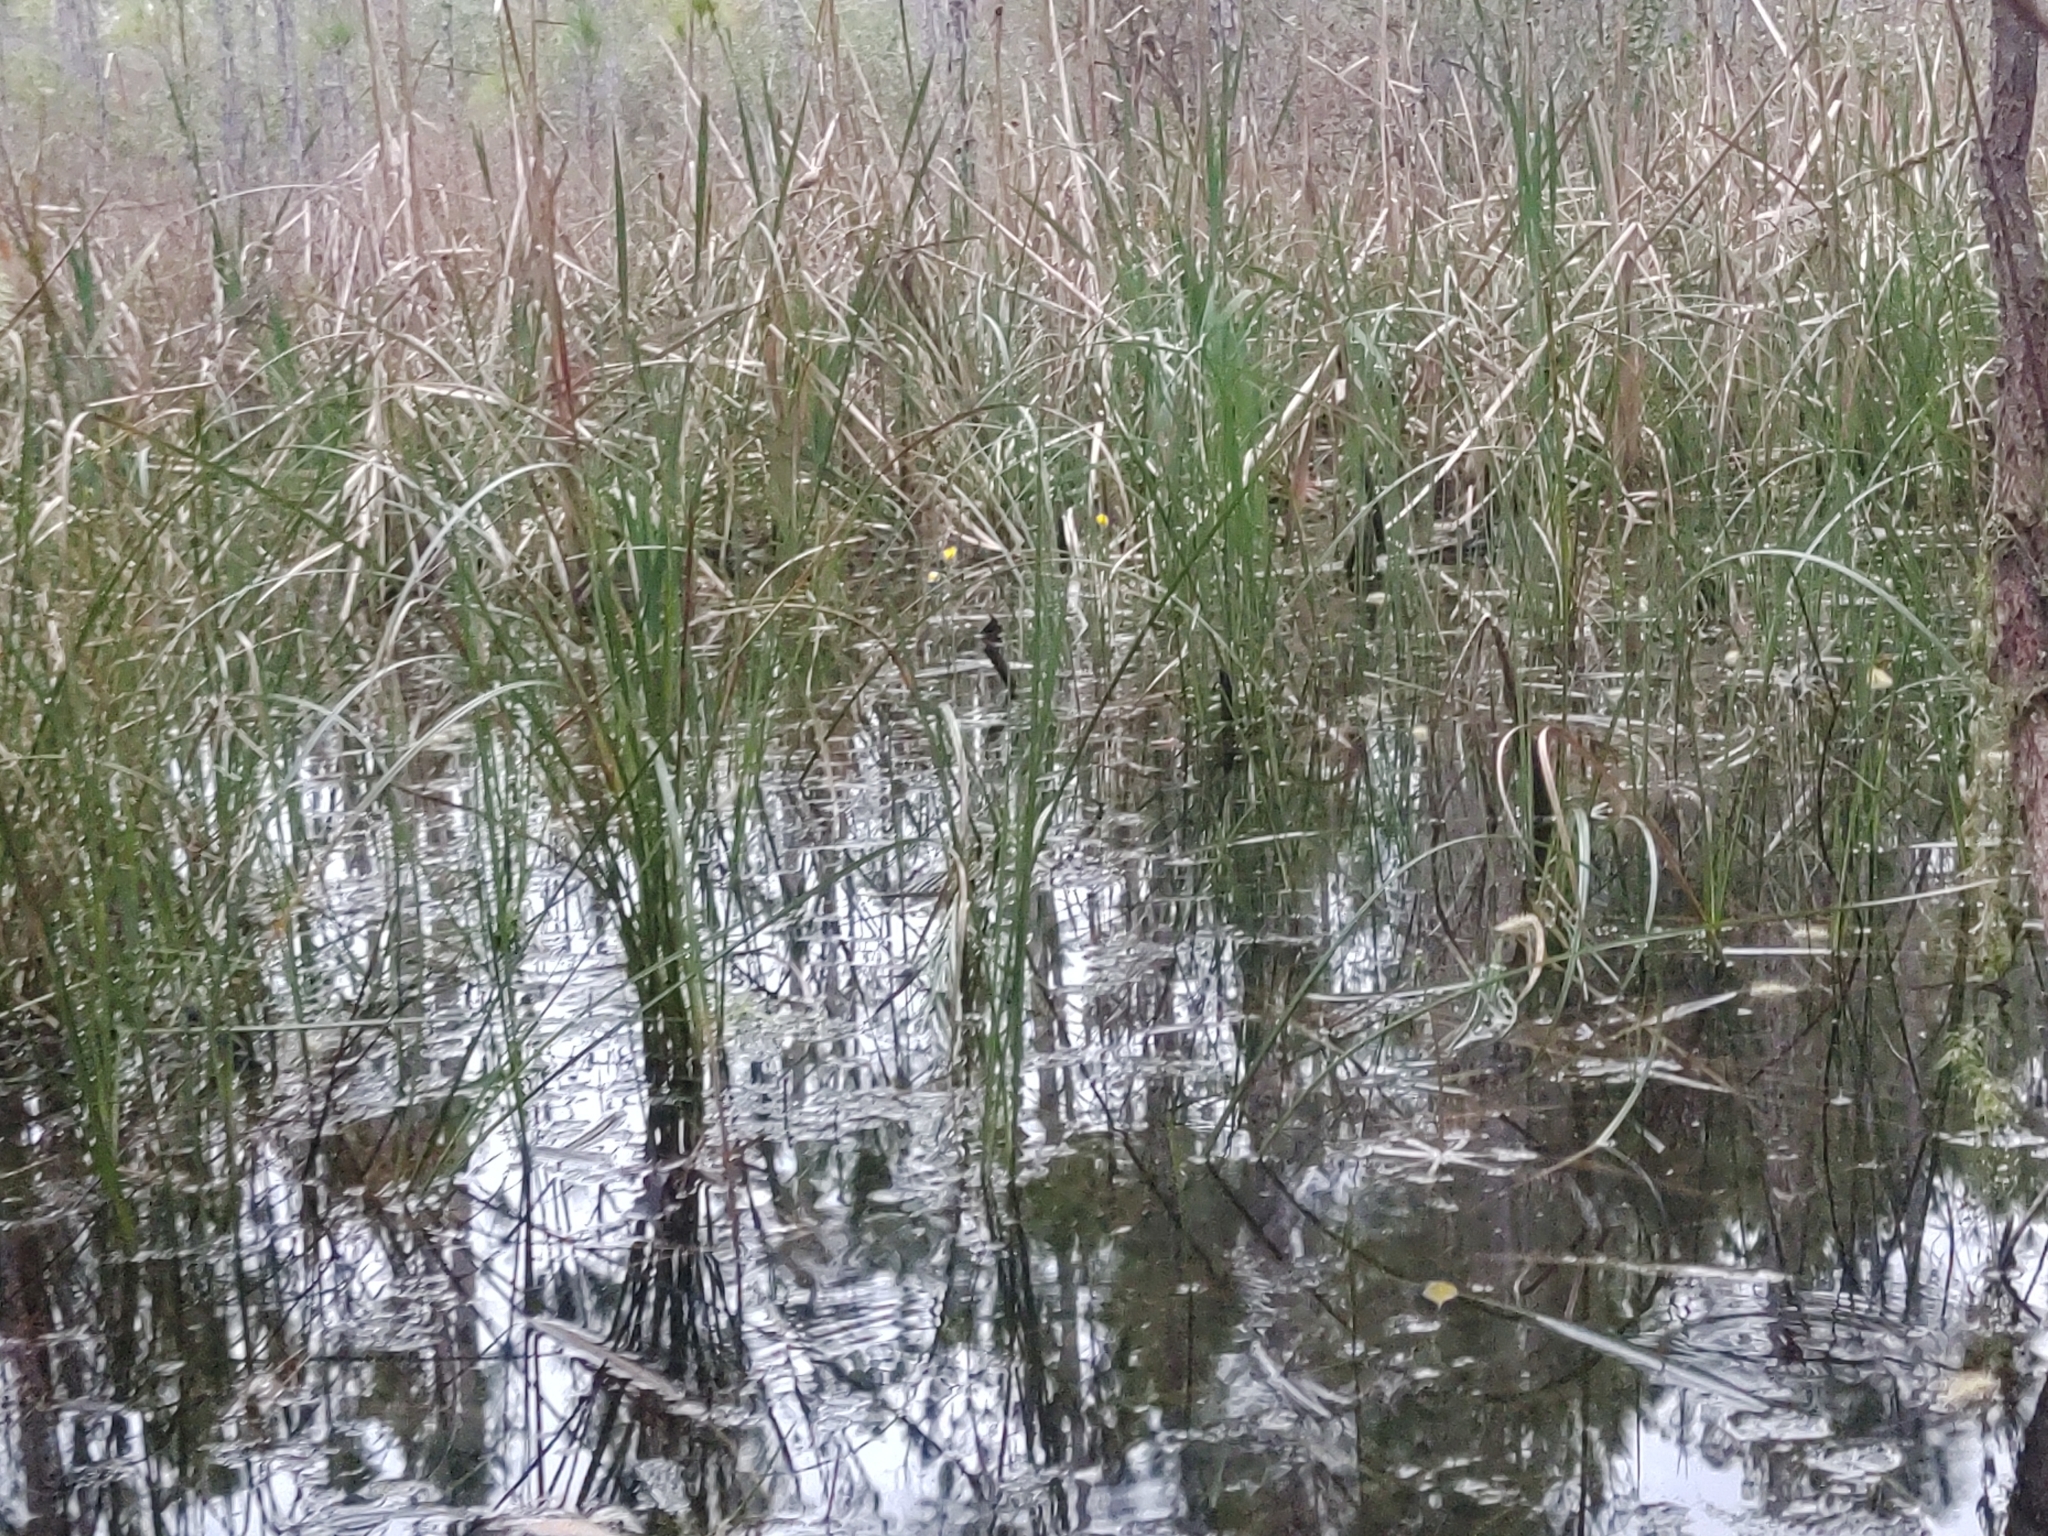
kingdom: Plantae
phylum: Tracheophyta
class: Magnoliopsida
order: Lamiales
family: Lentibulariaceae
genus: Utricularia
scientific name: Utricularia inflata
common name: Floating bladderwort
